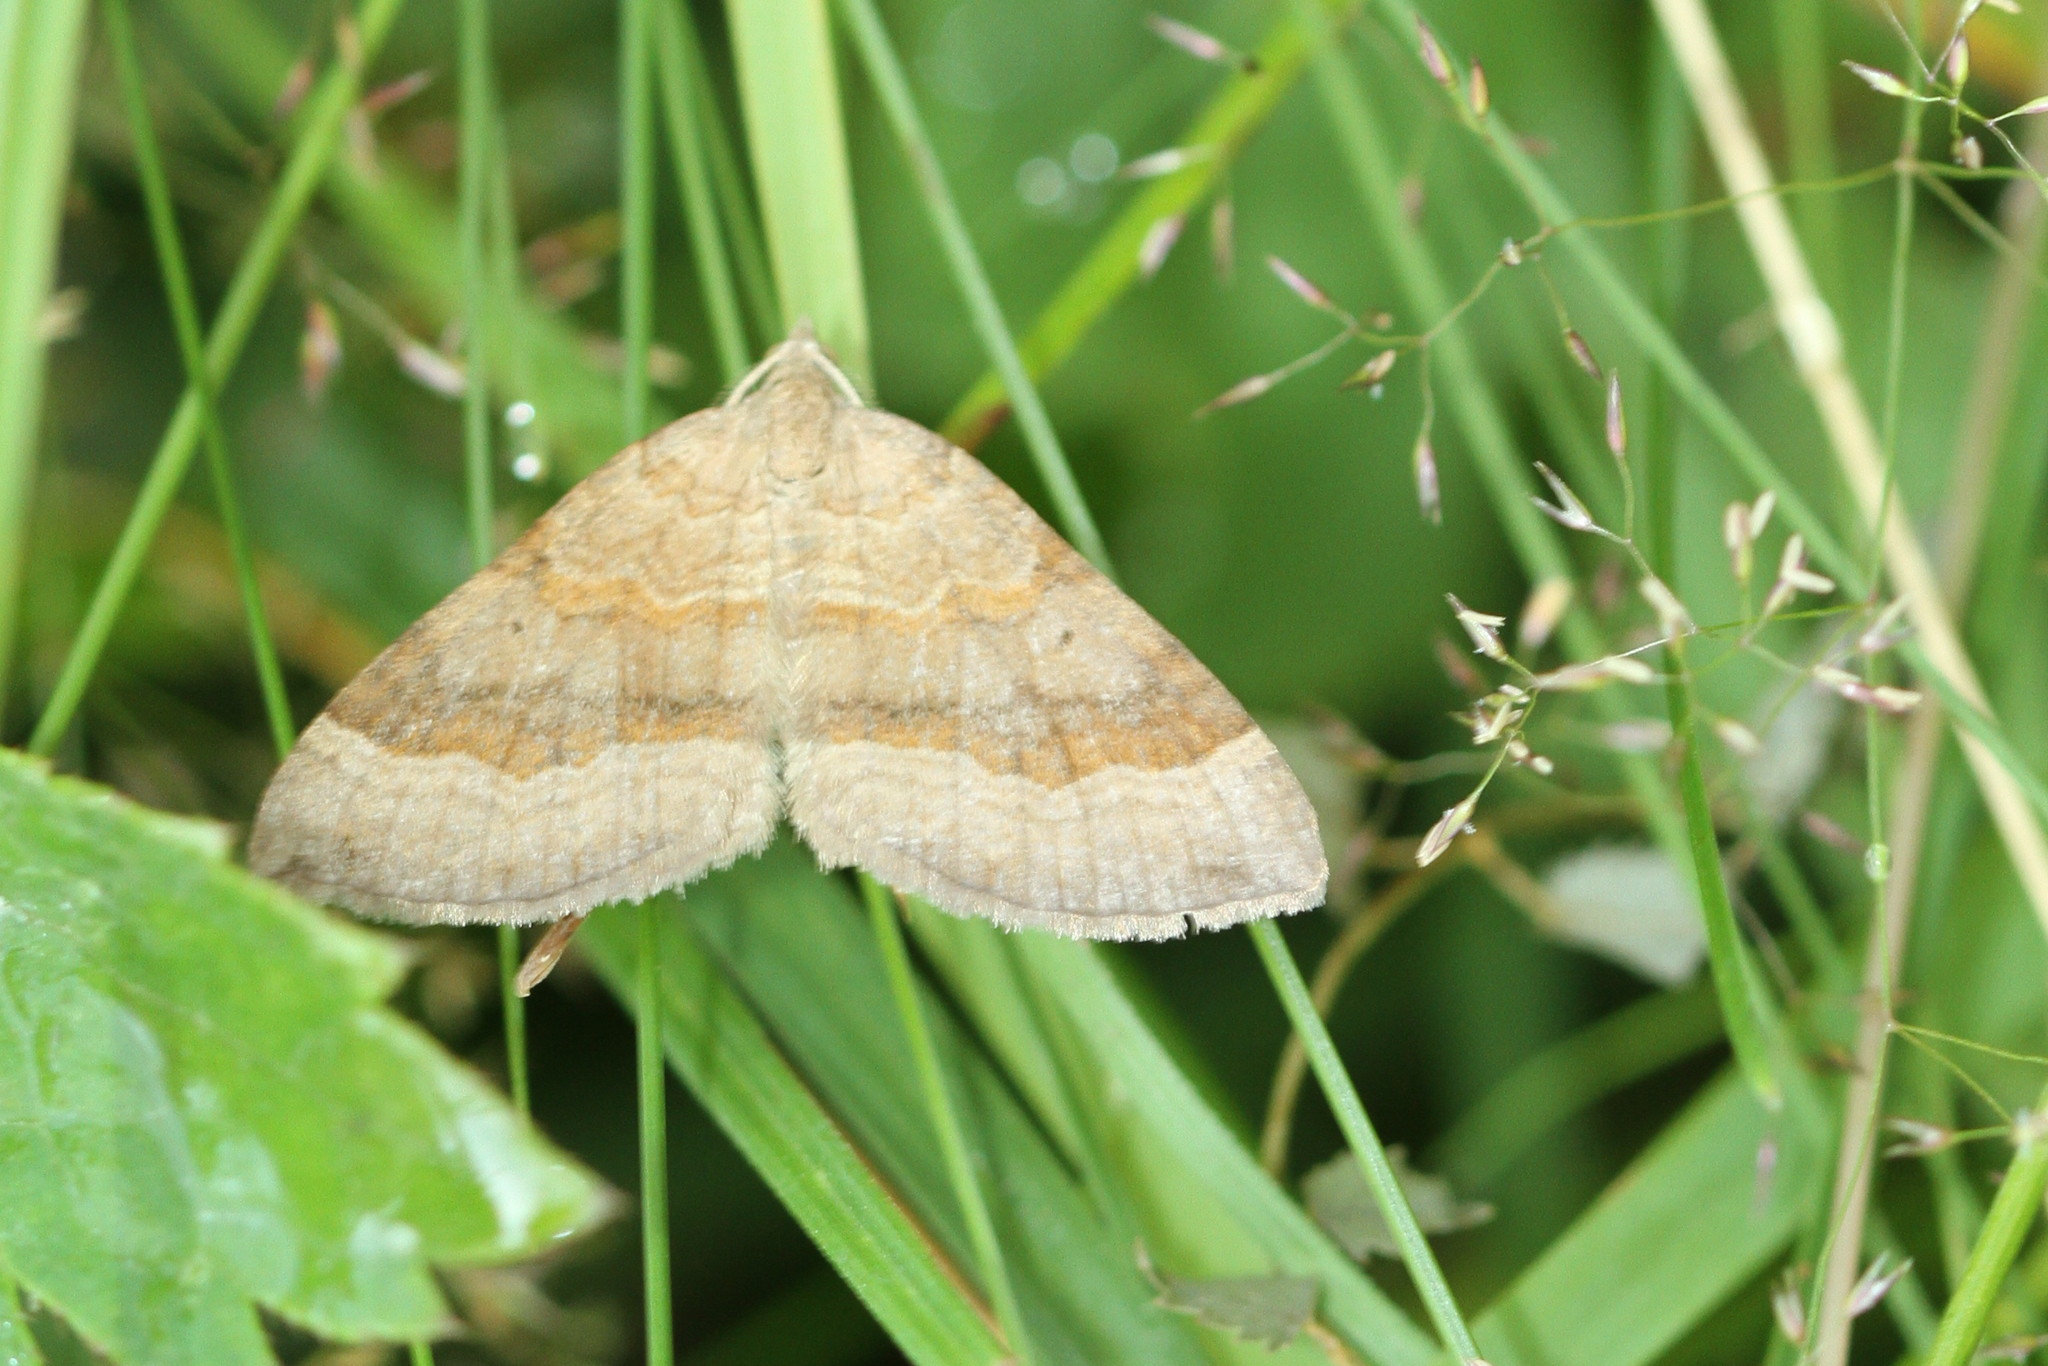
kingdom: Animalia
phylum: Arthropoda
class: Insecta
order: Lepidoptera
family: Geometridae
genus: Scotopteryx
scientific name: Scotopteryx chenopodiata
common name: Shaded broad-bar
